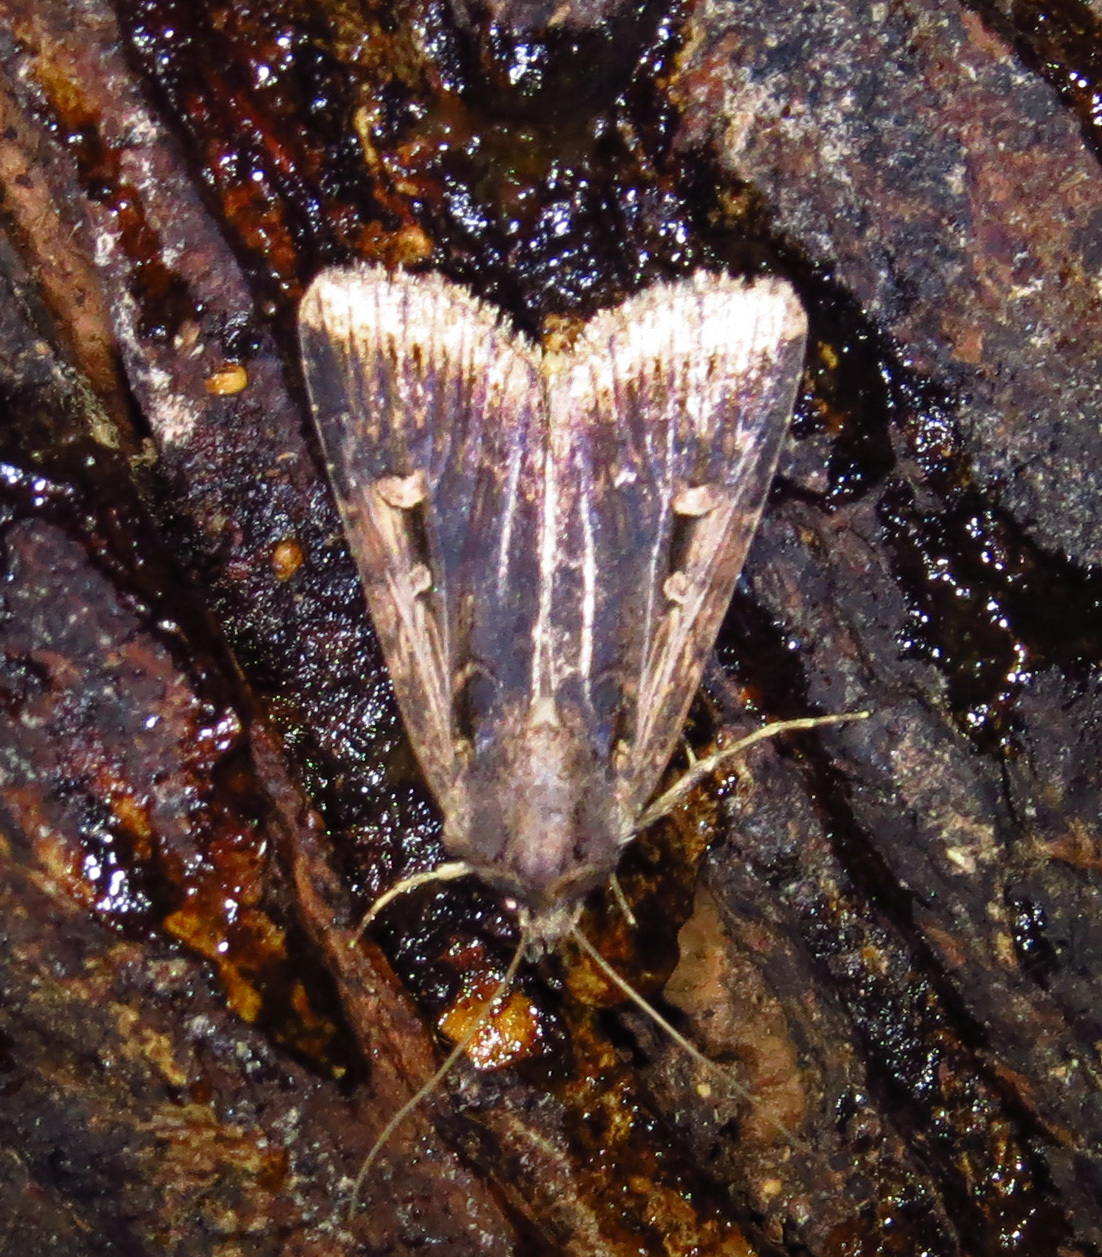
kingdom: Animalia
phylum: Arthropoda
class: Insecta
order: Lepidoptera
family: Noctuidae
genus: Feltia
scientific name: Feltia subterranea
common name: Granulate cutworm
